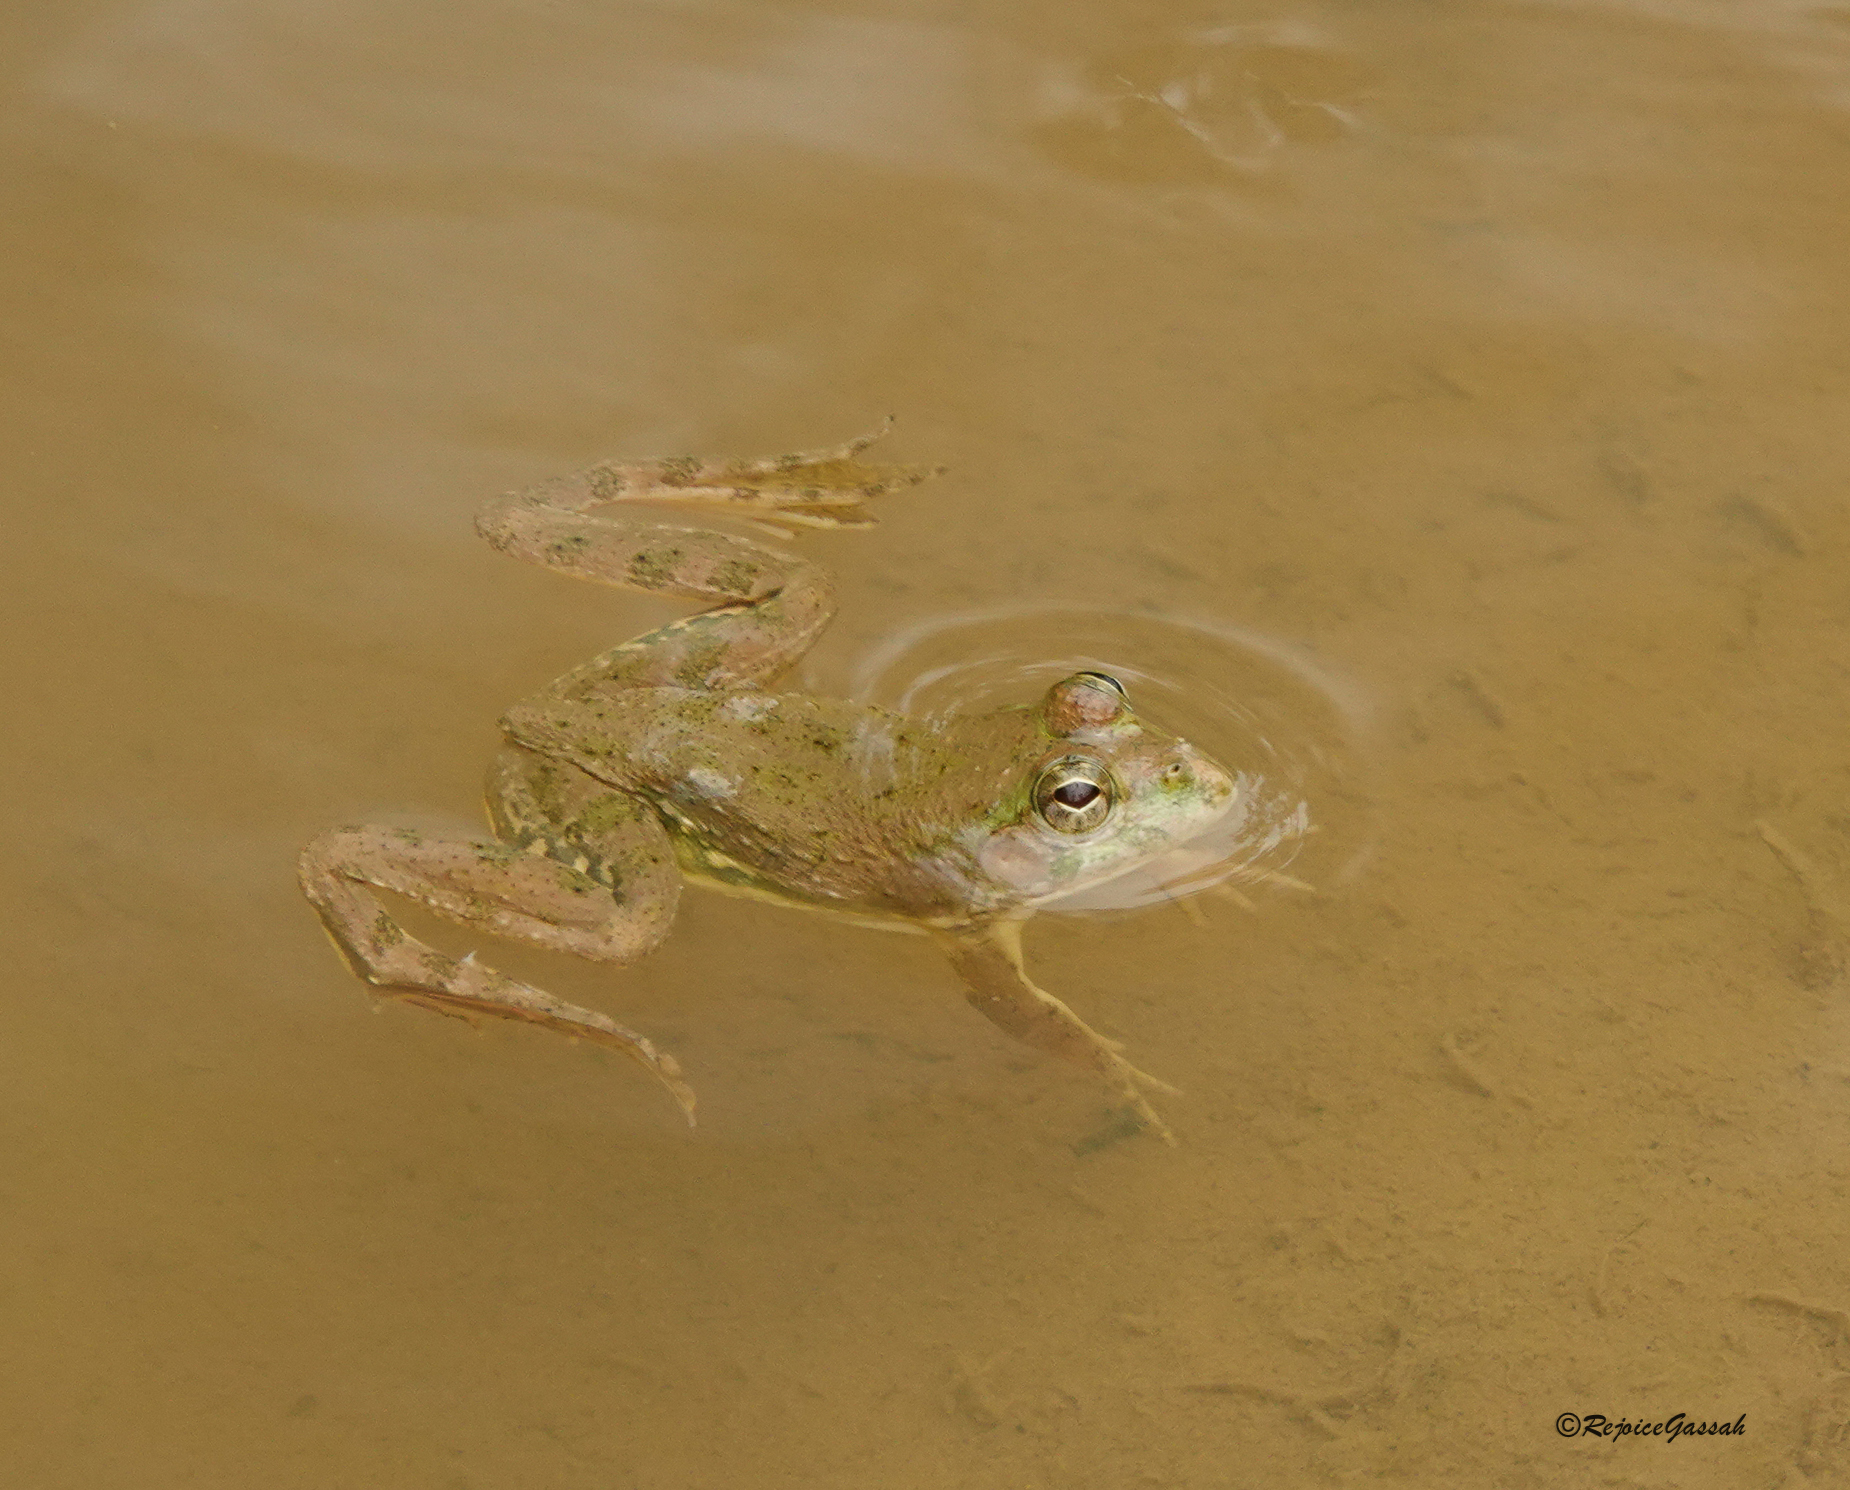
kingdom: Animalia
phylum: Chordata
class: Amphibia
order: Anura
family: Dicroglossidae
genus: Euphlyctis
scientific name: Euphlyctis cyanophlyctis
